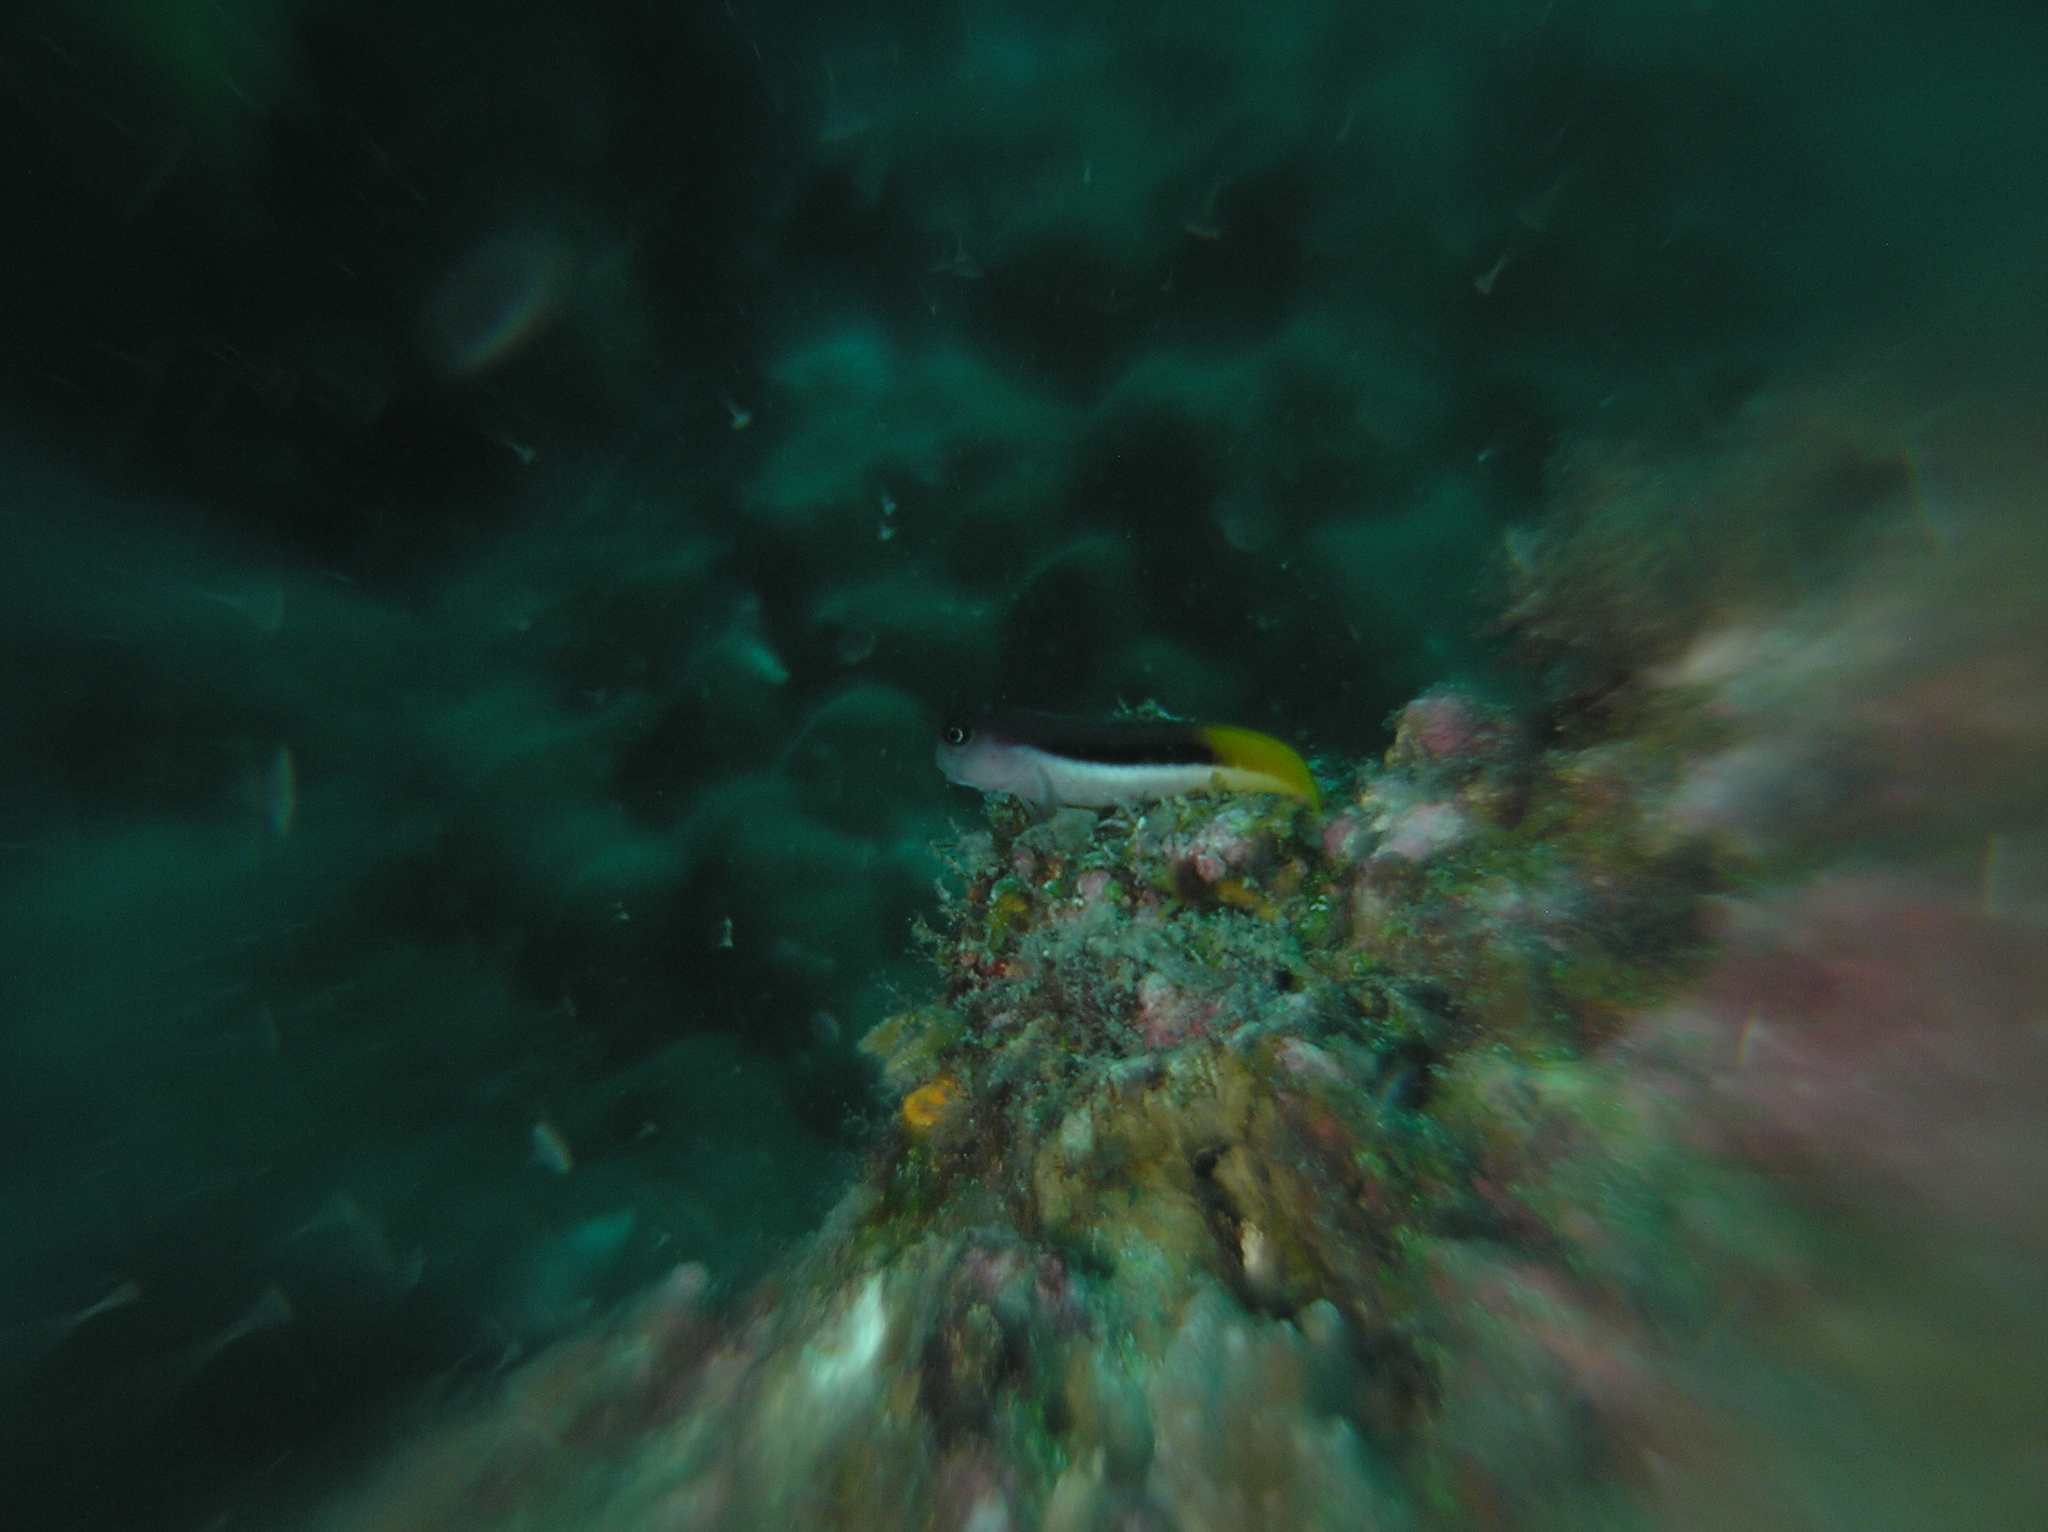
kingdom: Animalia
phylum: Chordata
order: Perciformes
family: Blenniidae
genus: Ecsenius
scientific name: Ecsenius bicolor
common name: Bicolor blenny
